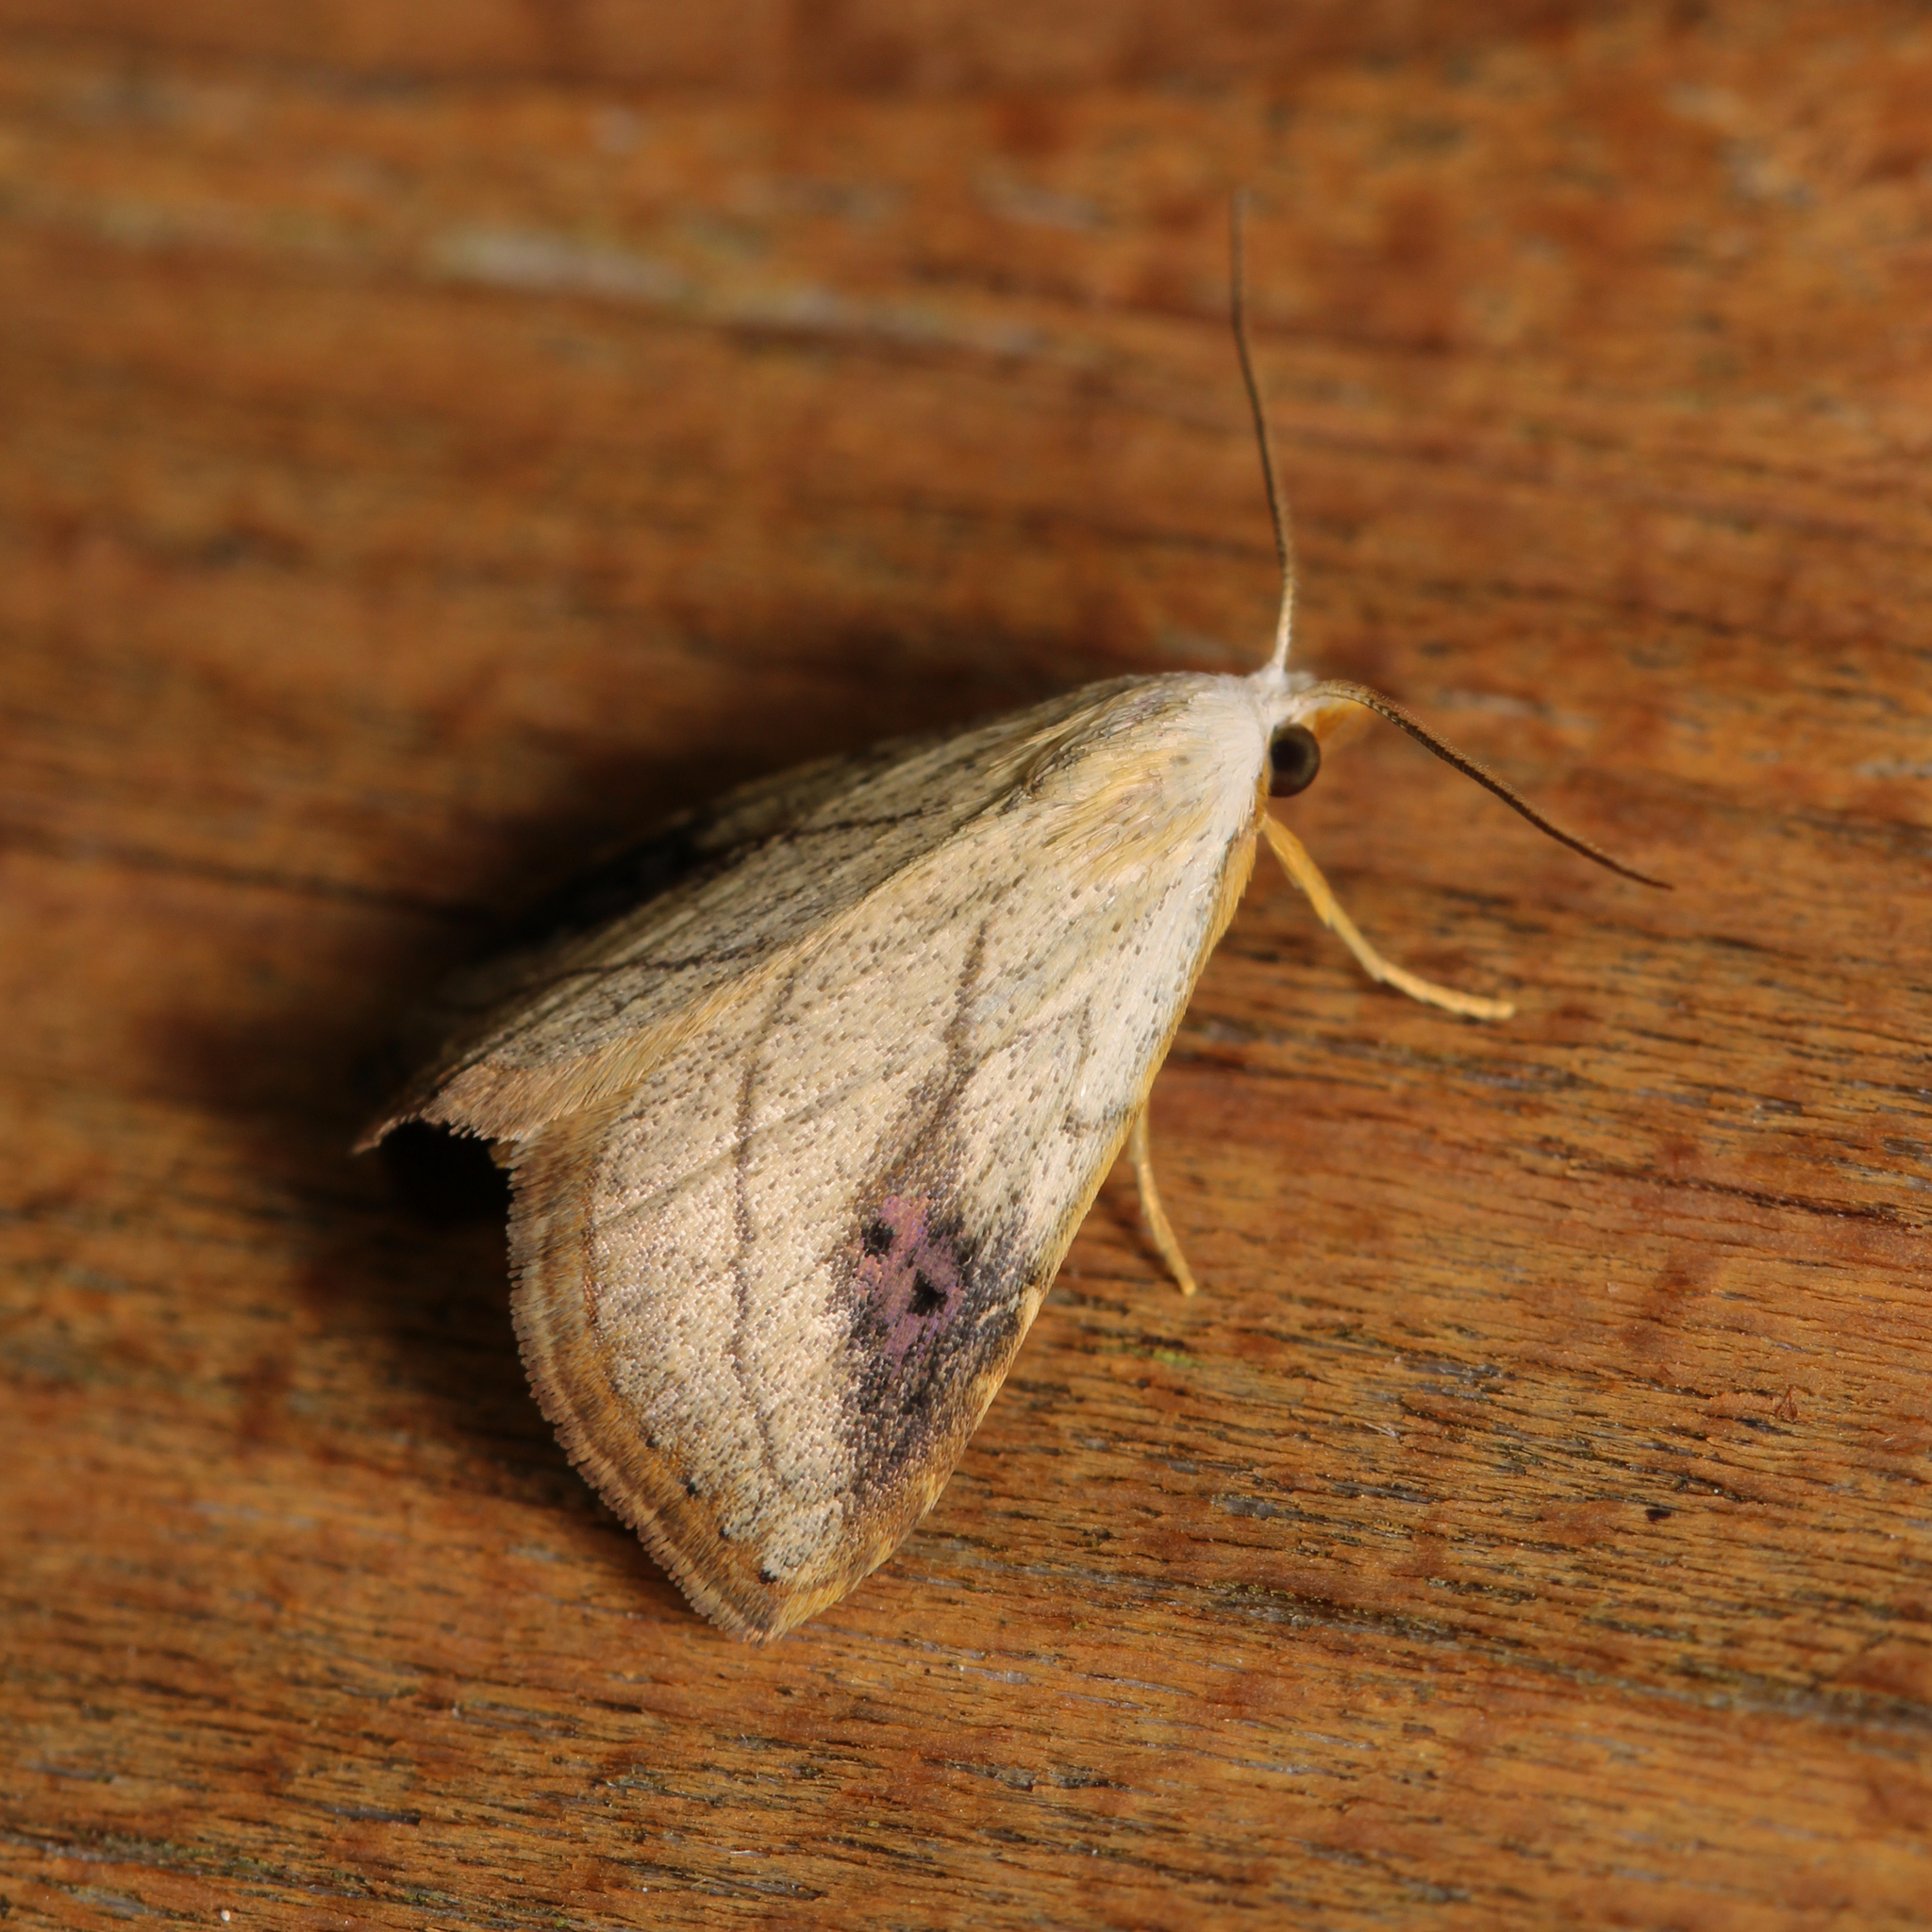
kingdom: Animalia
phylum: Arthropoda
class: Insecta
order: Lepidoptera
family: Erebidae
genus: Rivula
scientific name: Rivula propinqualis
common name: Spotted grass moth
